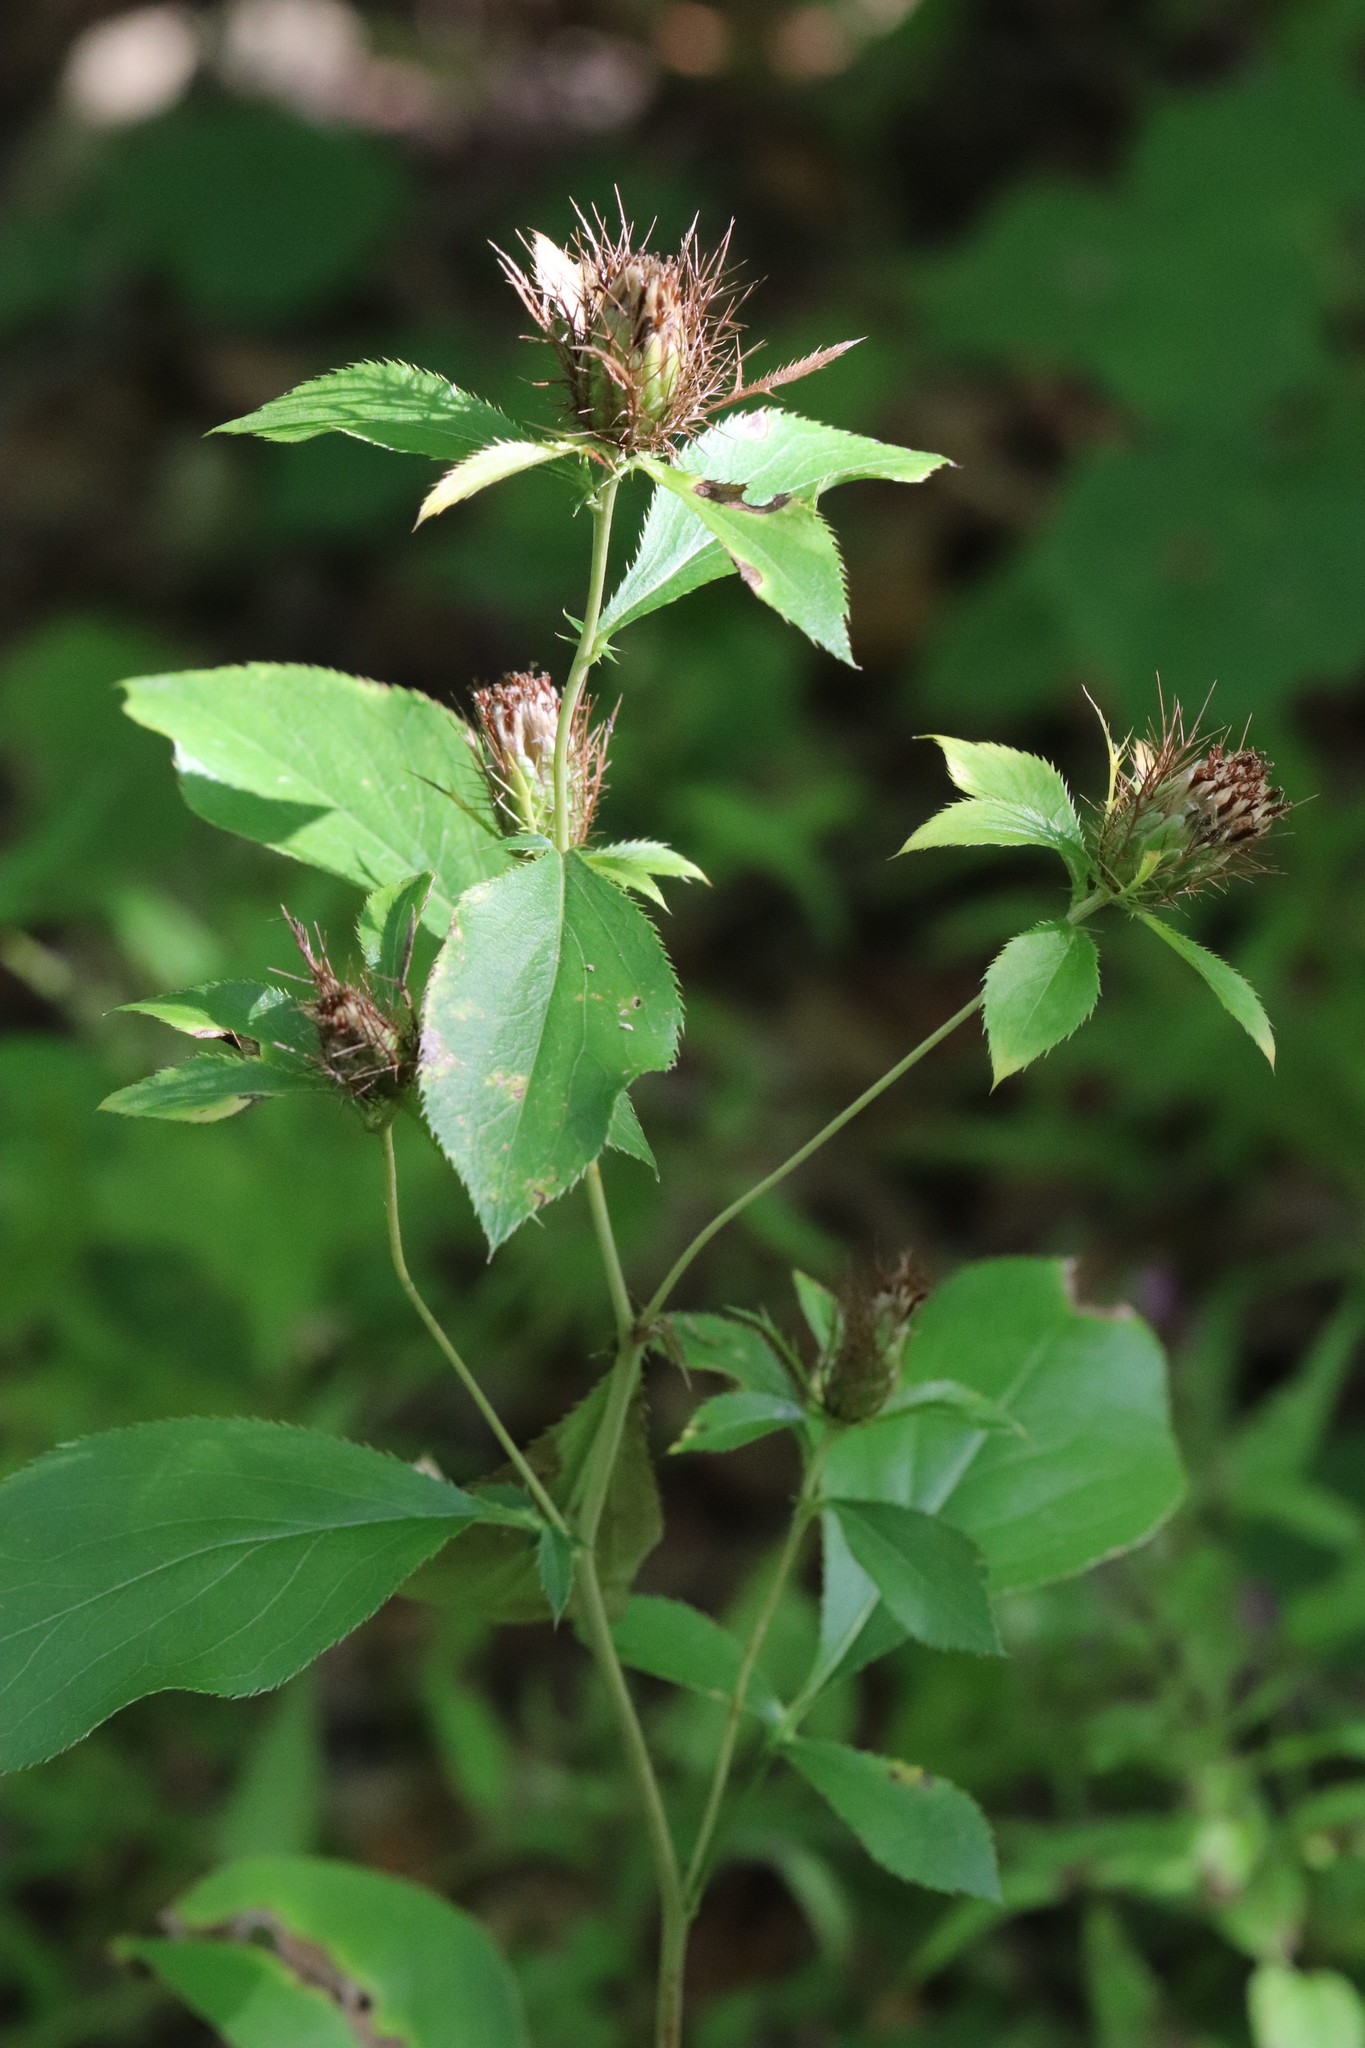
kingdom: Plantae
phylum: Tracheophyta
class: Magnoliopsida
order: Asterales
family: Asteraceae
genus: Atractylodes
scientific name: Atractylodes lancea
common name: Southern tsangshu
